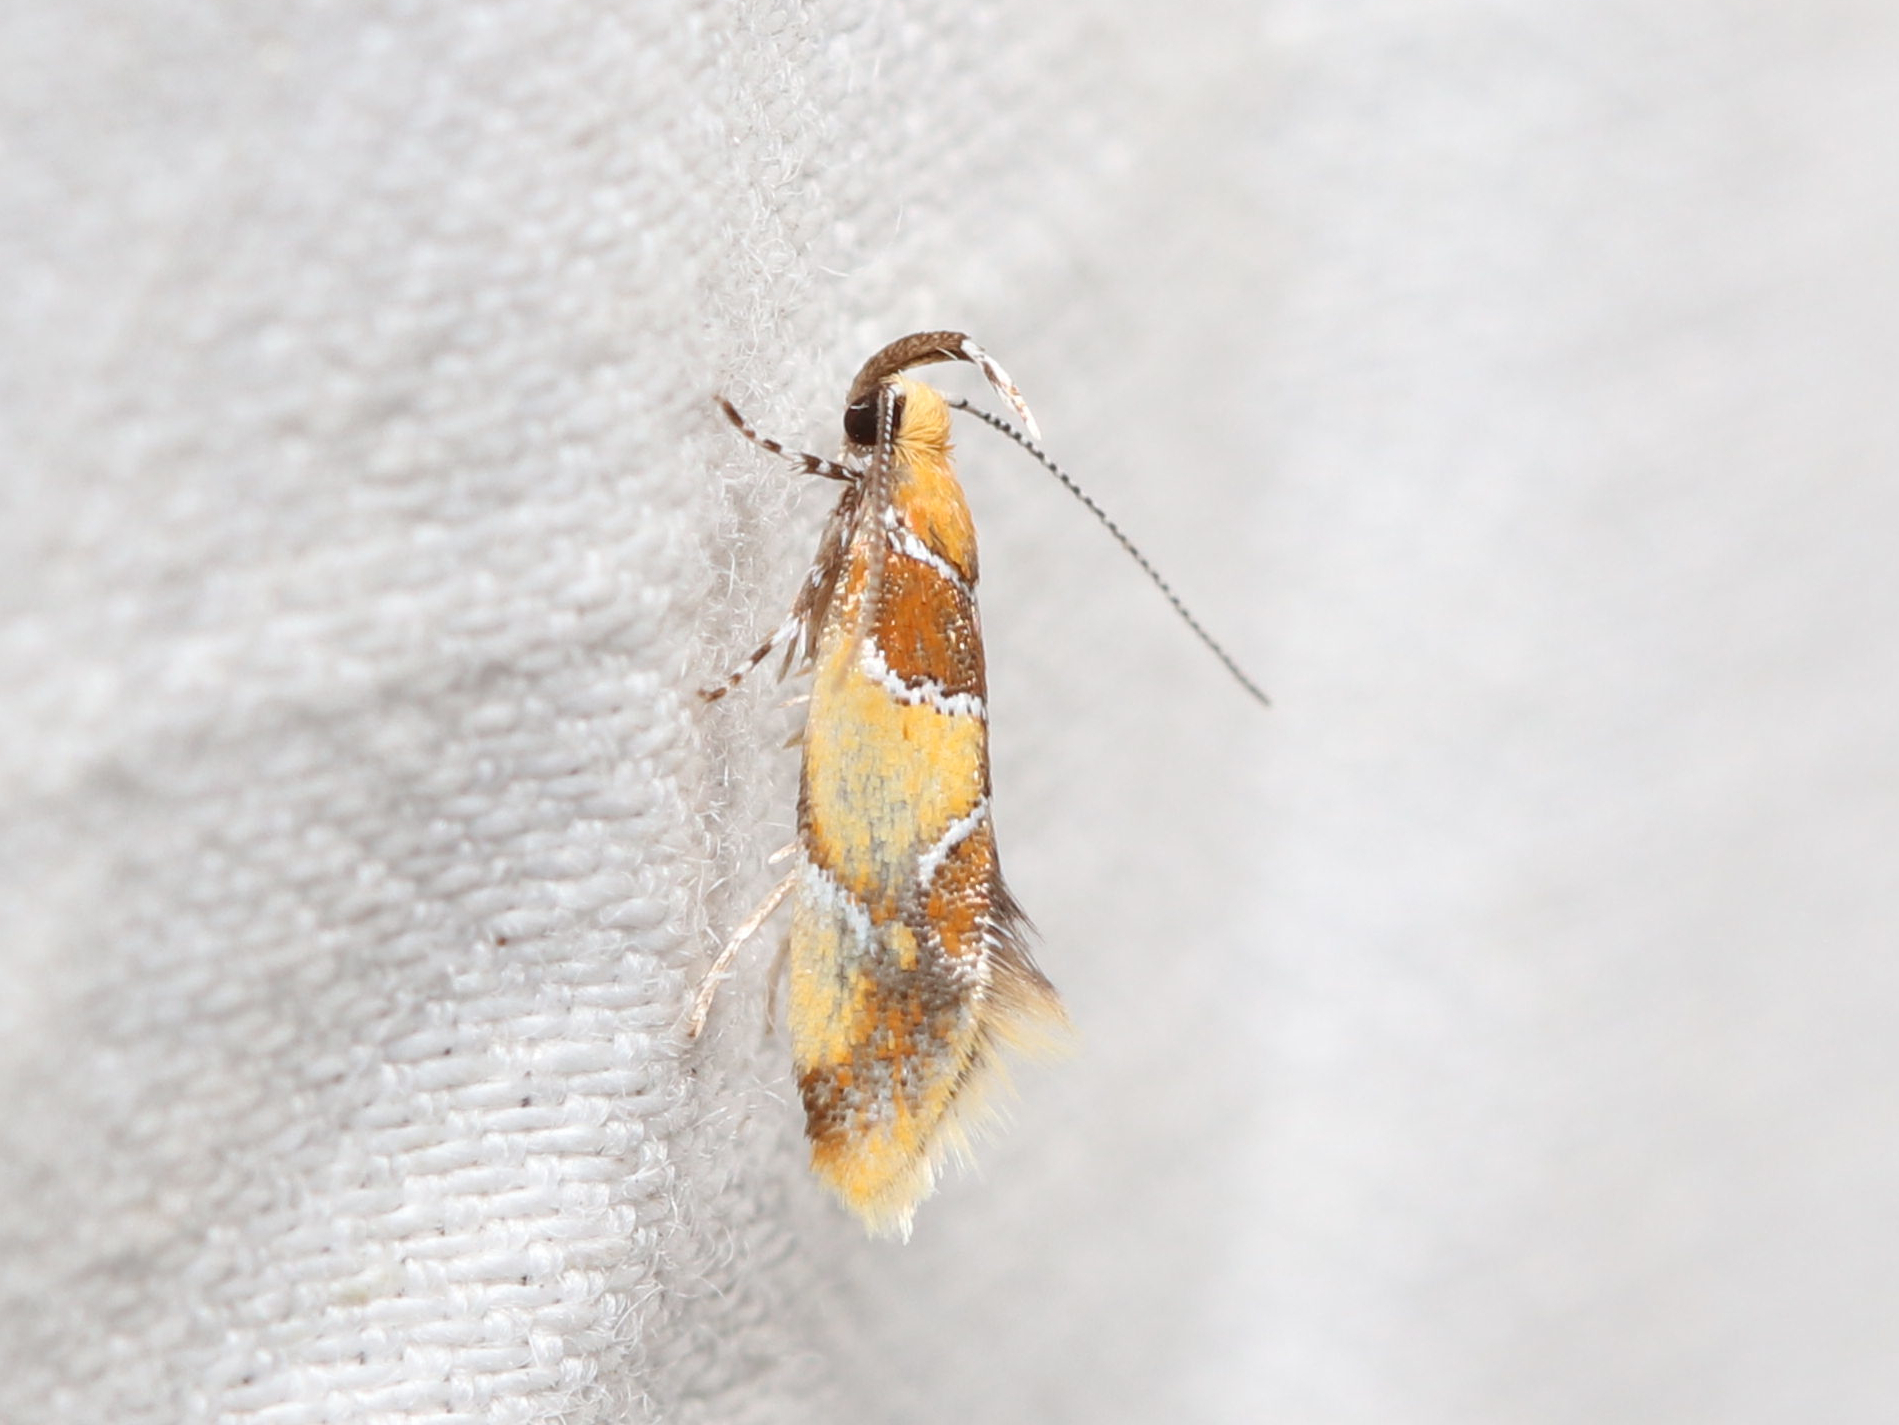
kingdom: Animalia
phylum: Arthropoda
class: Insecta
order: Lepidoptera
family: Oecophoridae
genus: Callima
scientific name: Callima argenticinctella
